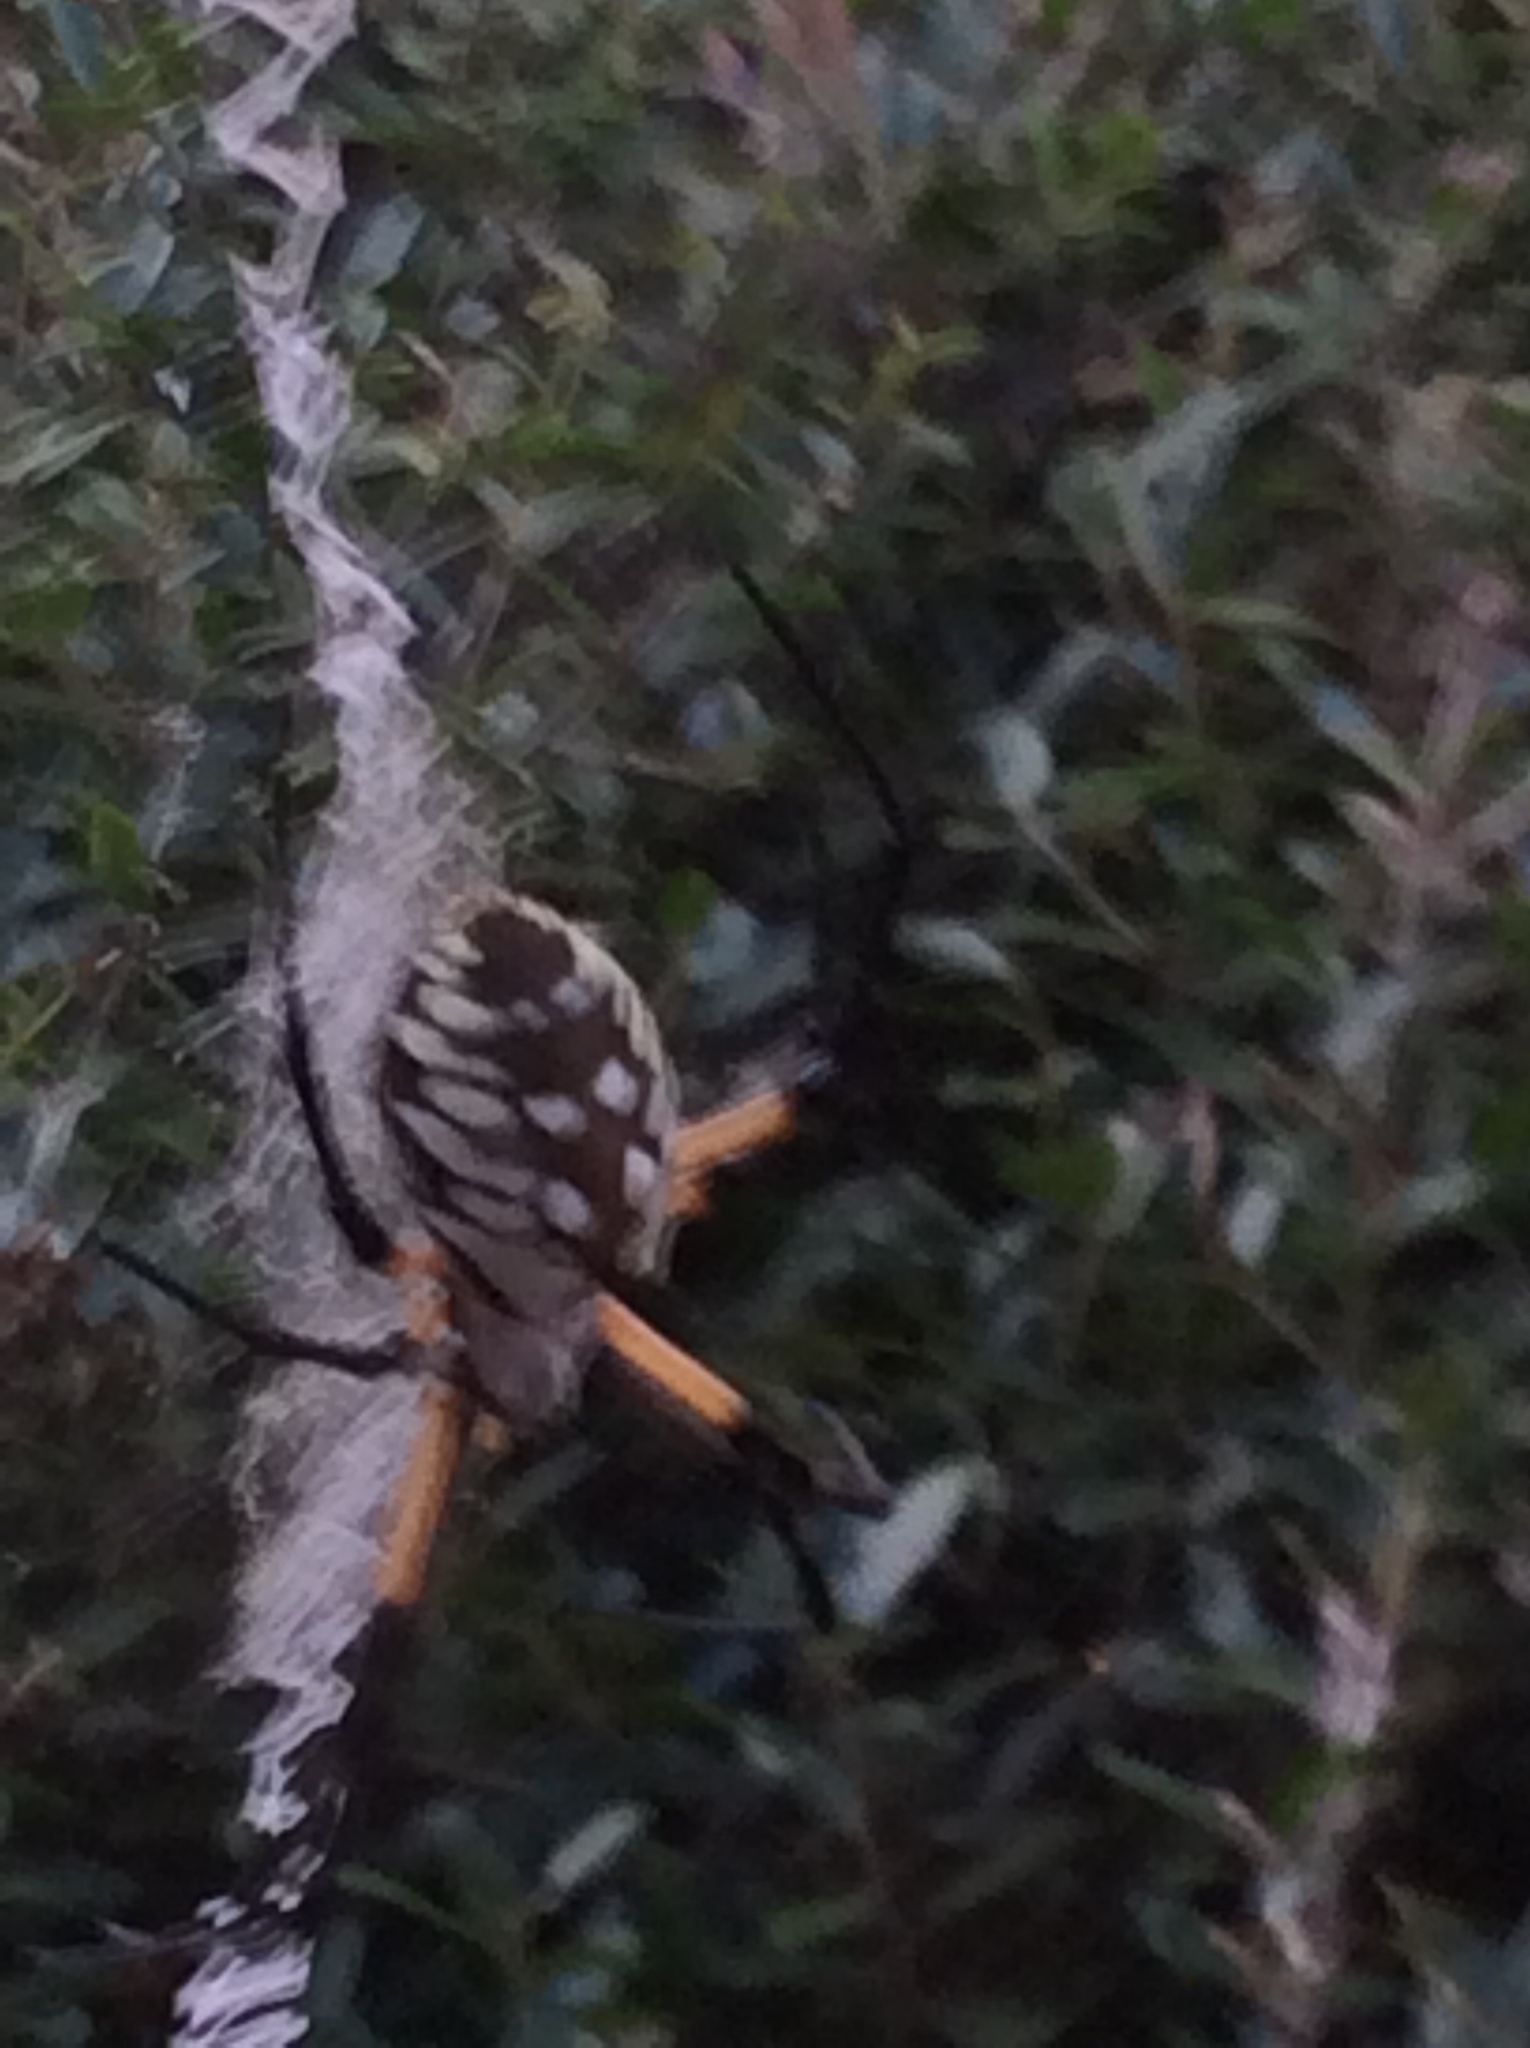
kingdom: Animalia
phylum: Arthropoda
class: Arachnida
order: Araneae
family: Araneidae
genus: Argiope
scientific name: Argiope aurantia
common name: Orb weavers
